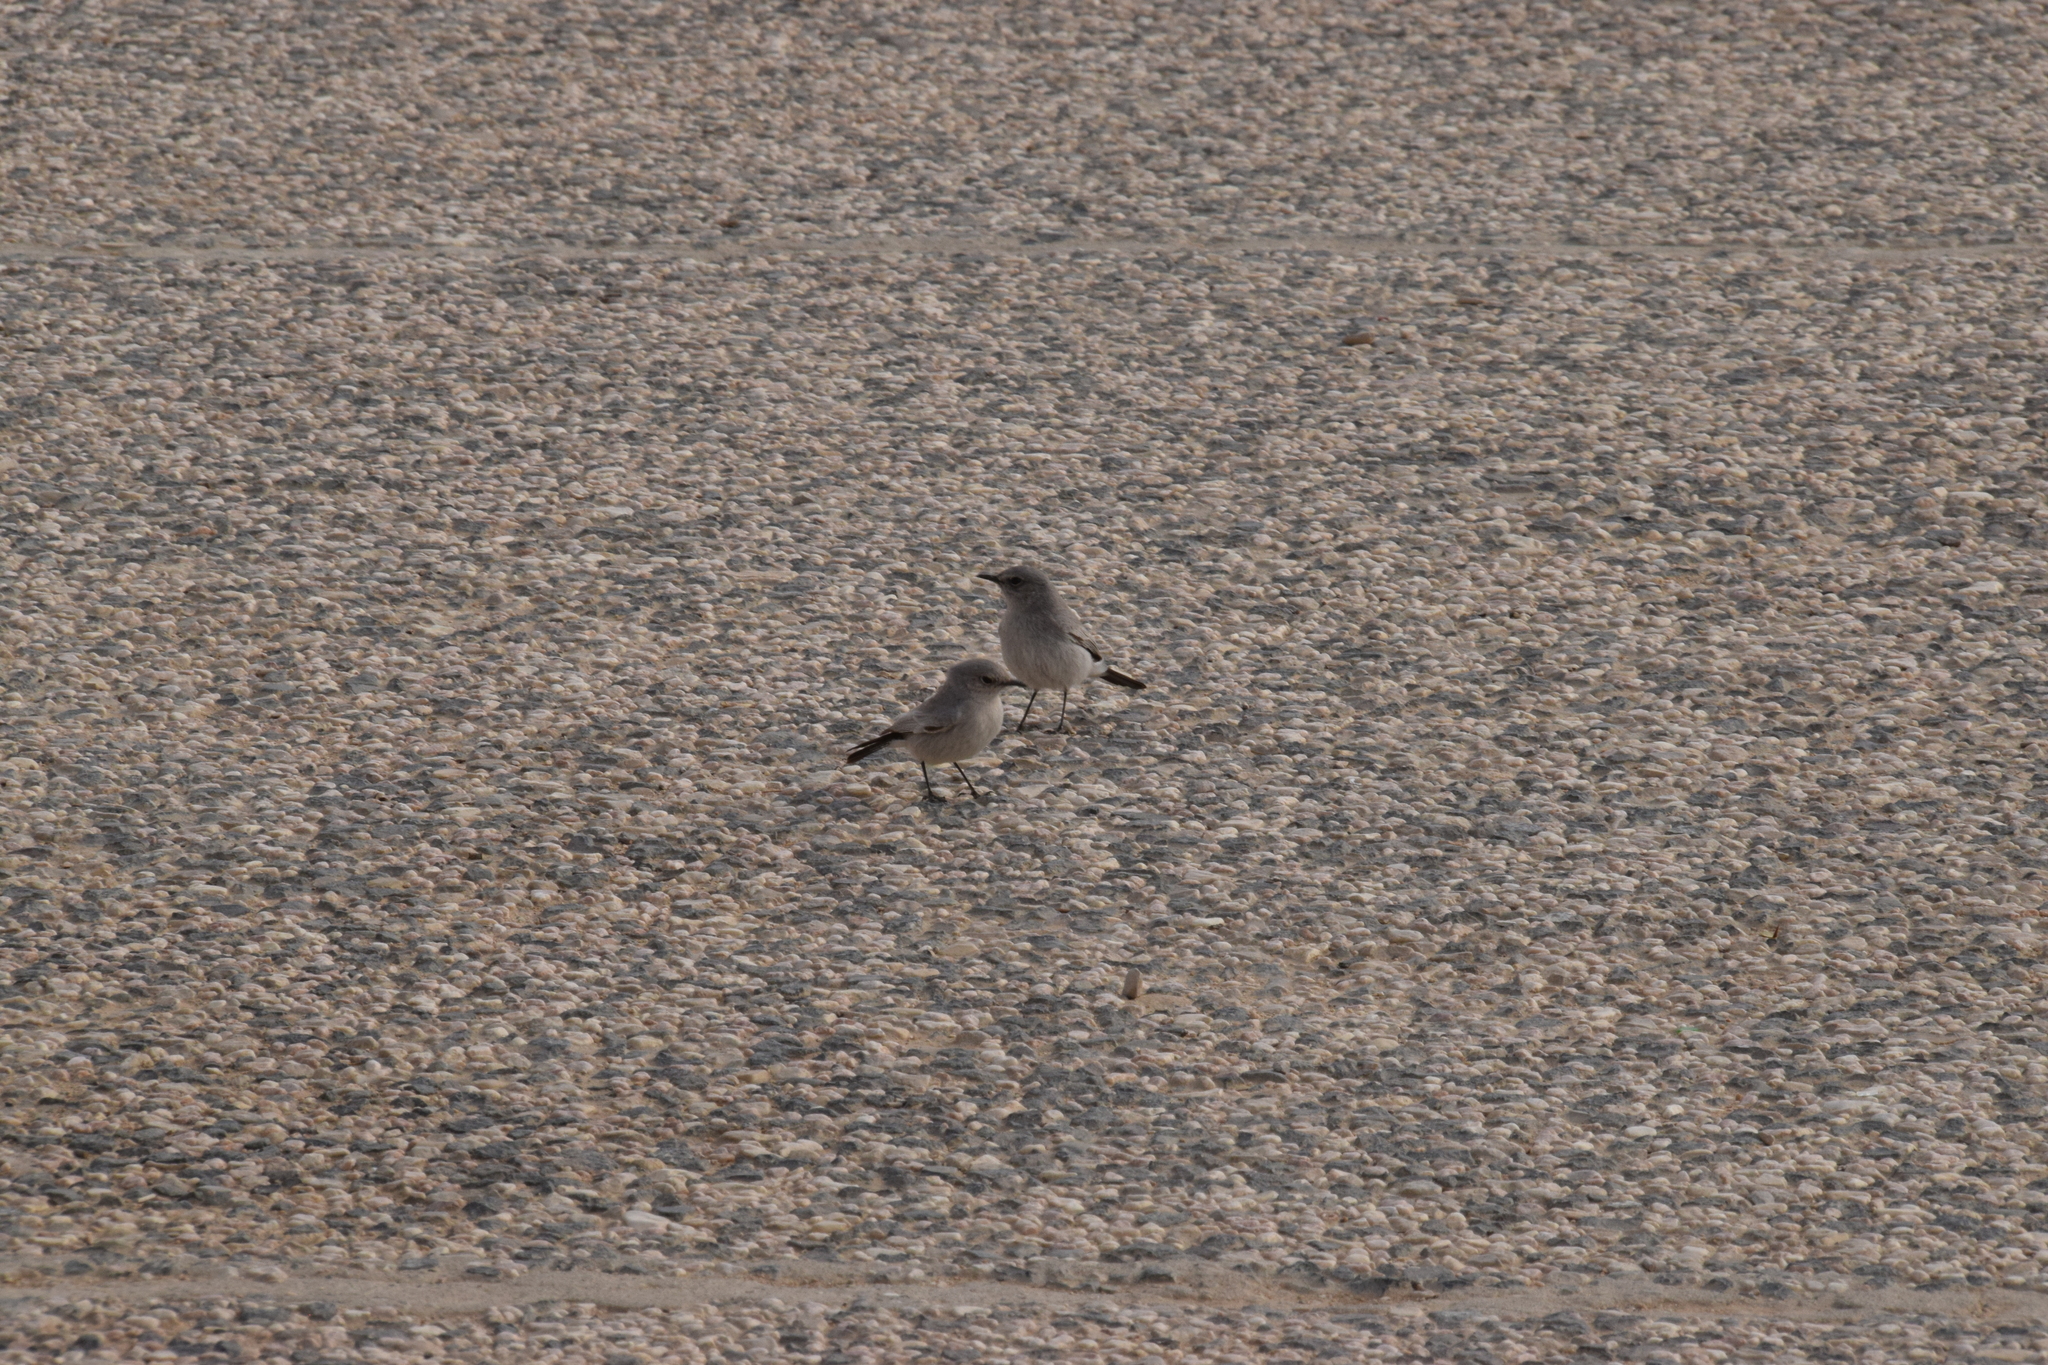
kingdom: Animalia
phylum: Chordata
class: Aves
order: Passeriformes
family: Muscicapidae
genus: Oenanthe
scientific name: Oenanthe melanura
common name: Blackstart
